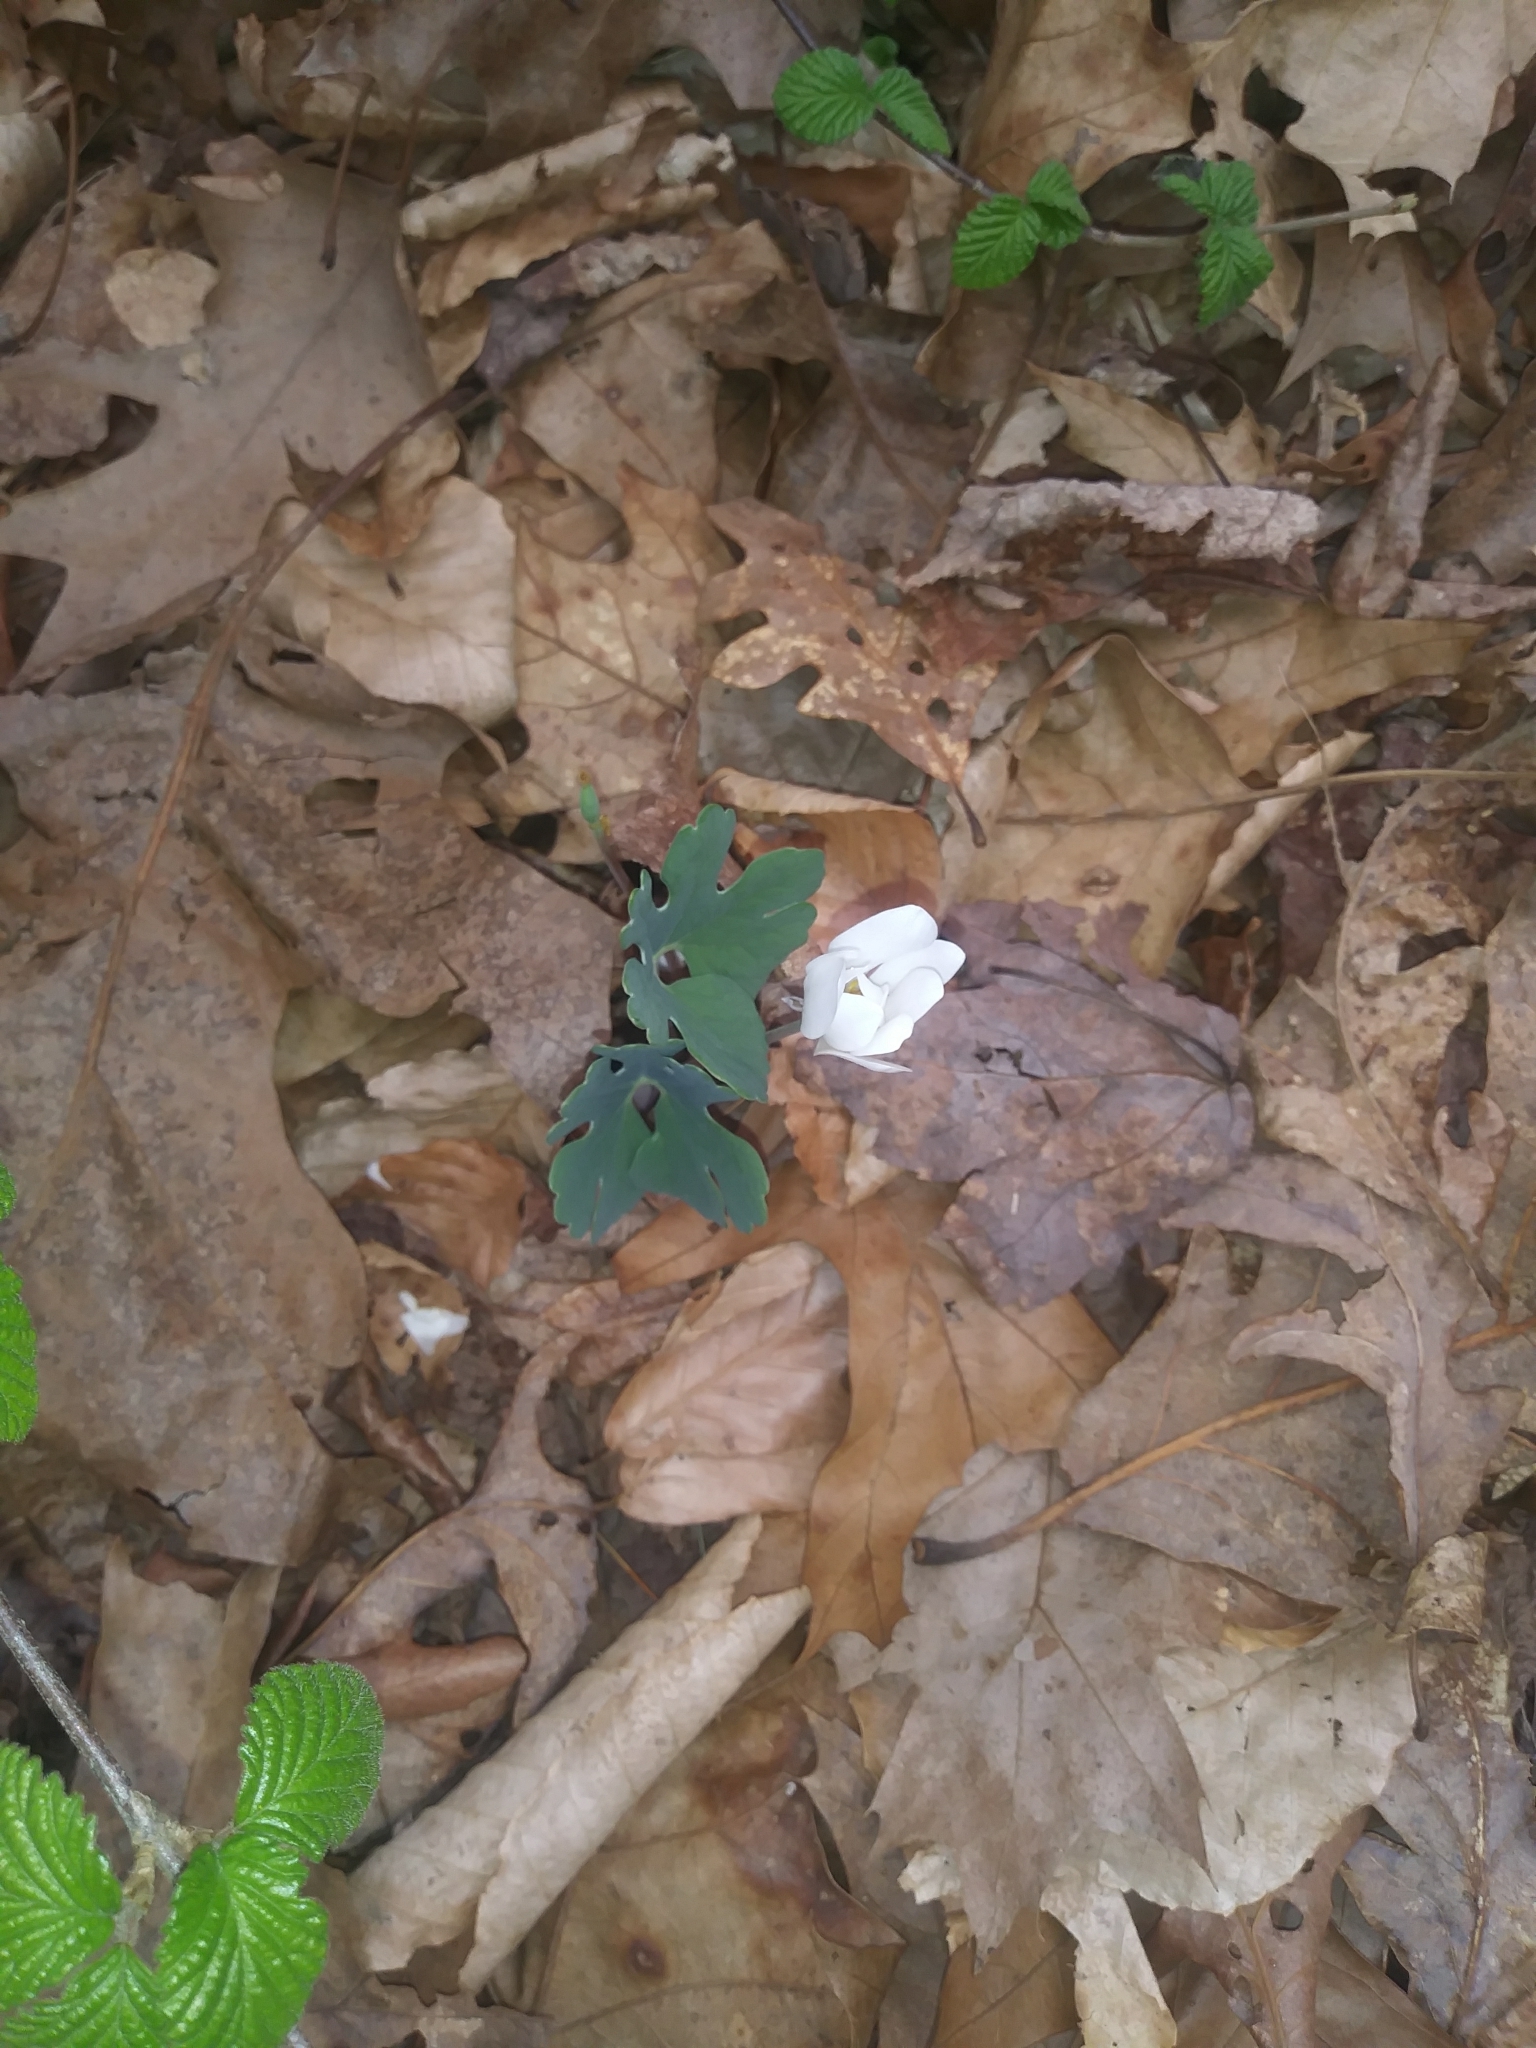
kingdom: Plantae
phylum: Tracheophyta
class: Magnoliopsida
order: Ranunculales
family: Papaveraceae
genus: Sanguinaria
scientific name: Sanguinaria canadensis
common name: Bloodroot
